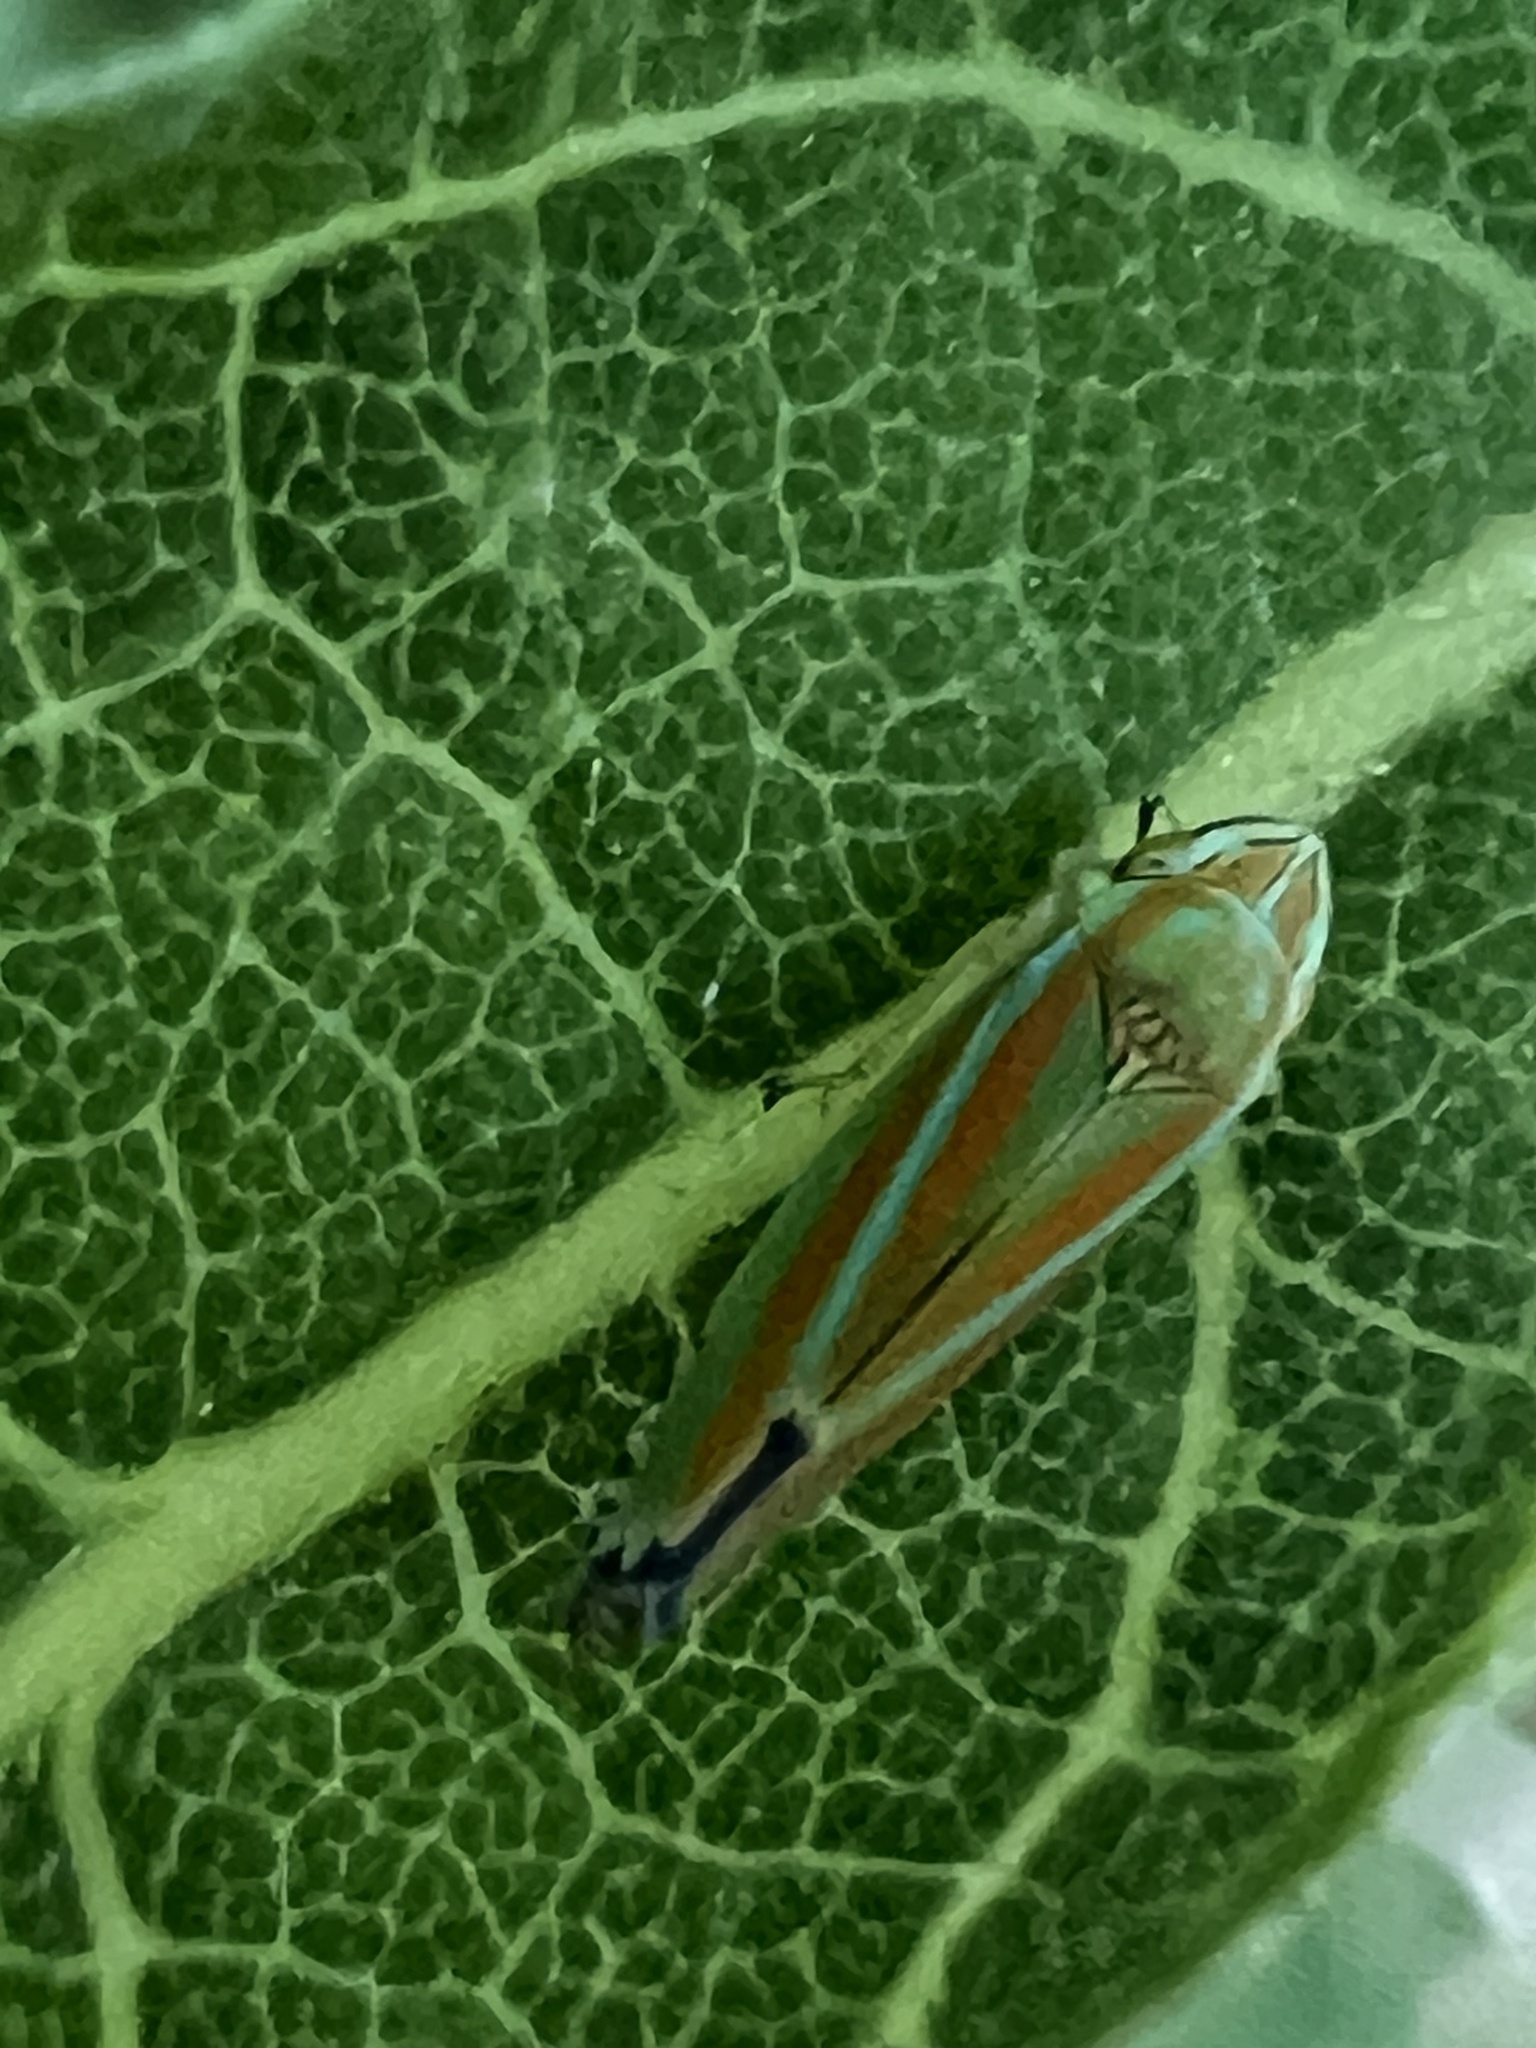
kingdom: Animalia
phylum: Arthropoda
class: Insecta
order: Hemiptera
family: Cicadellidae
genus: Graphocephala
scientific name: Graphocephala versuta
